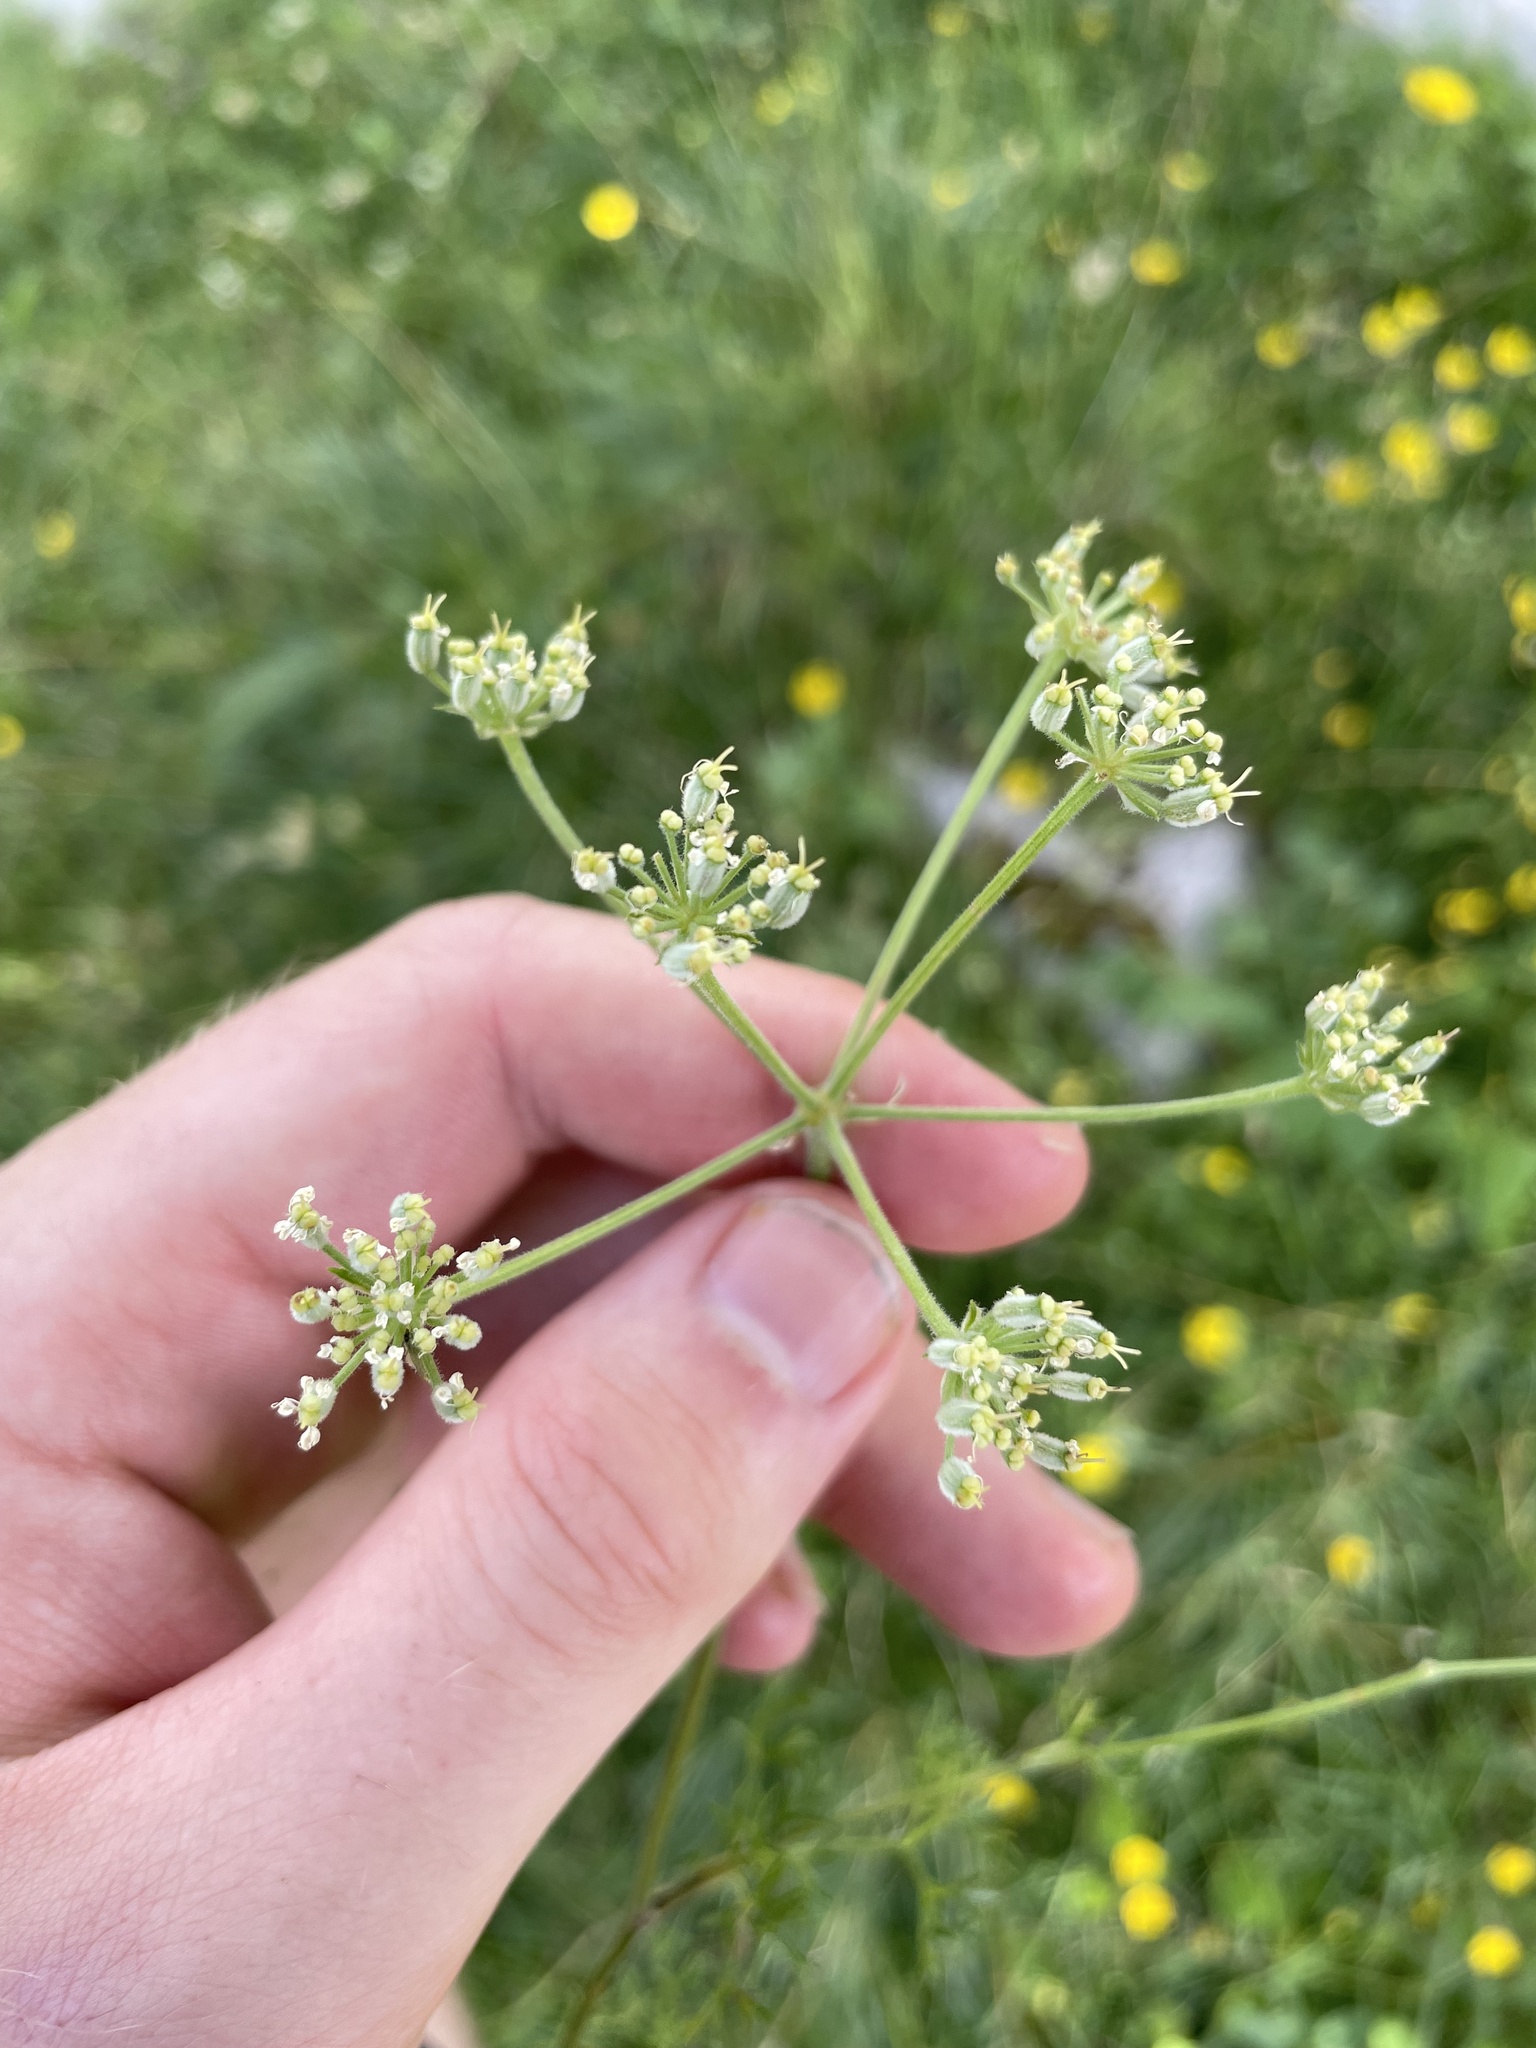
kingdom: Plantae
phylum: Tracheophyta
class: Magnoliopsida
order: Apiales
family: Apiaceae
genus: Athamanta
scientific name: Athamanta cretensis
